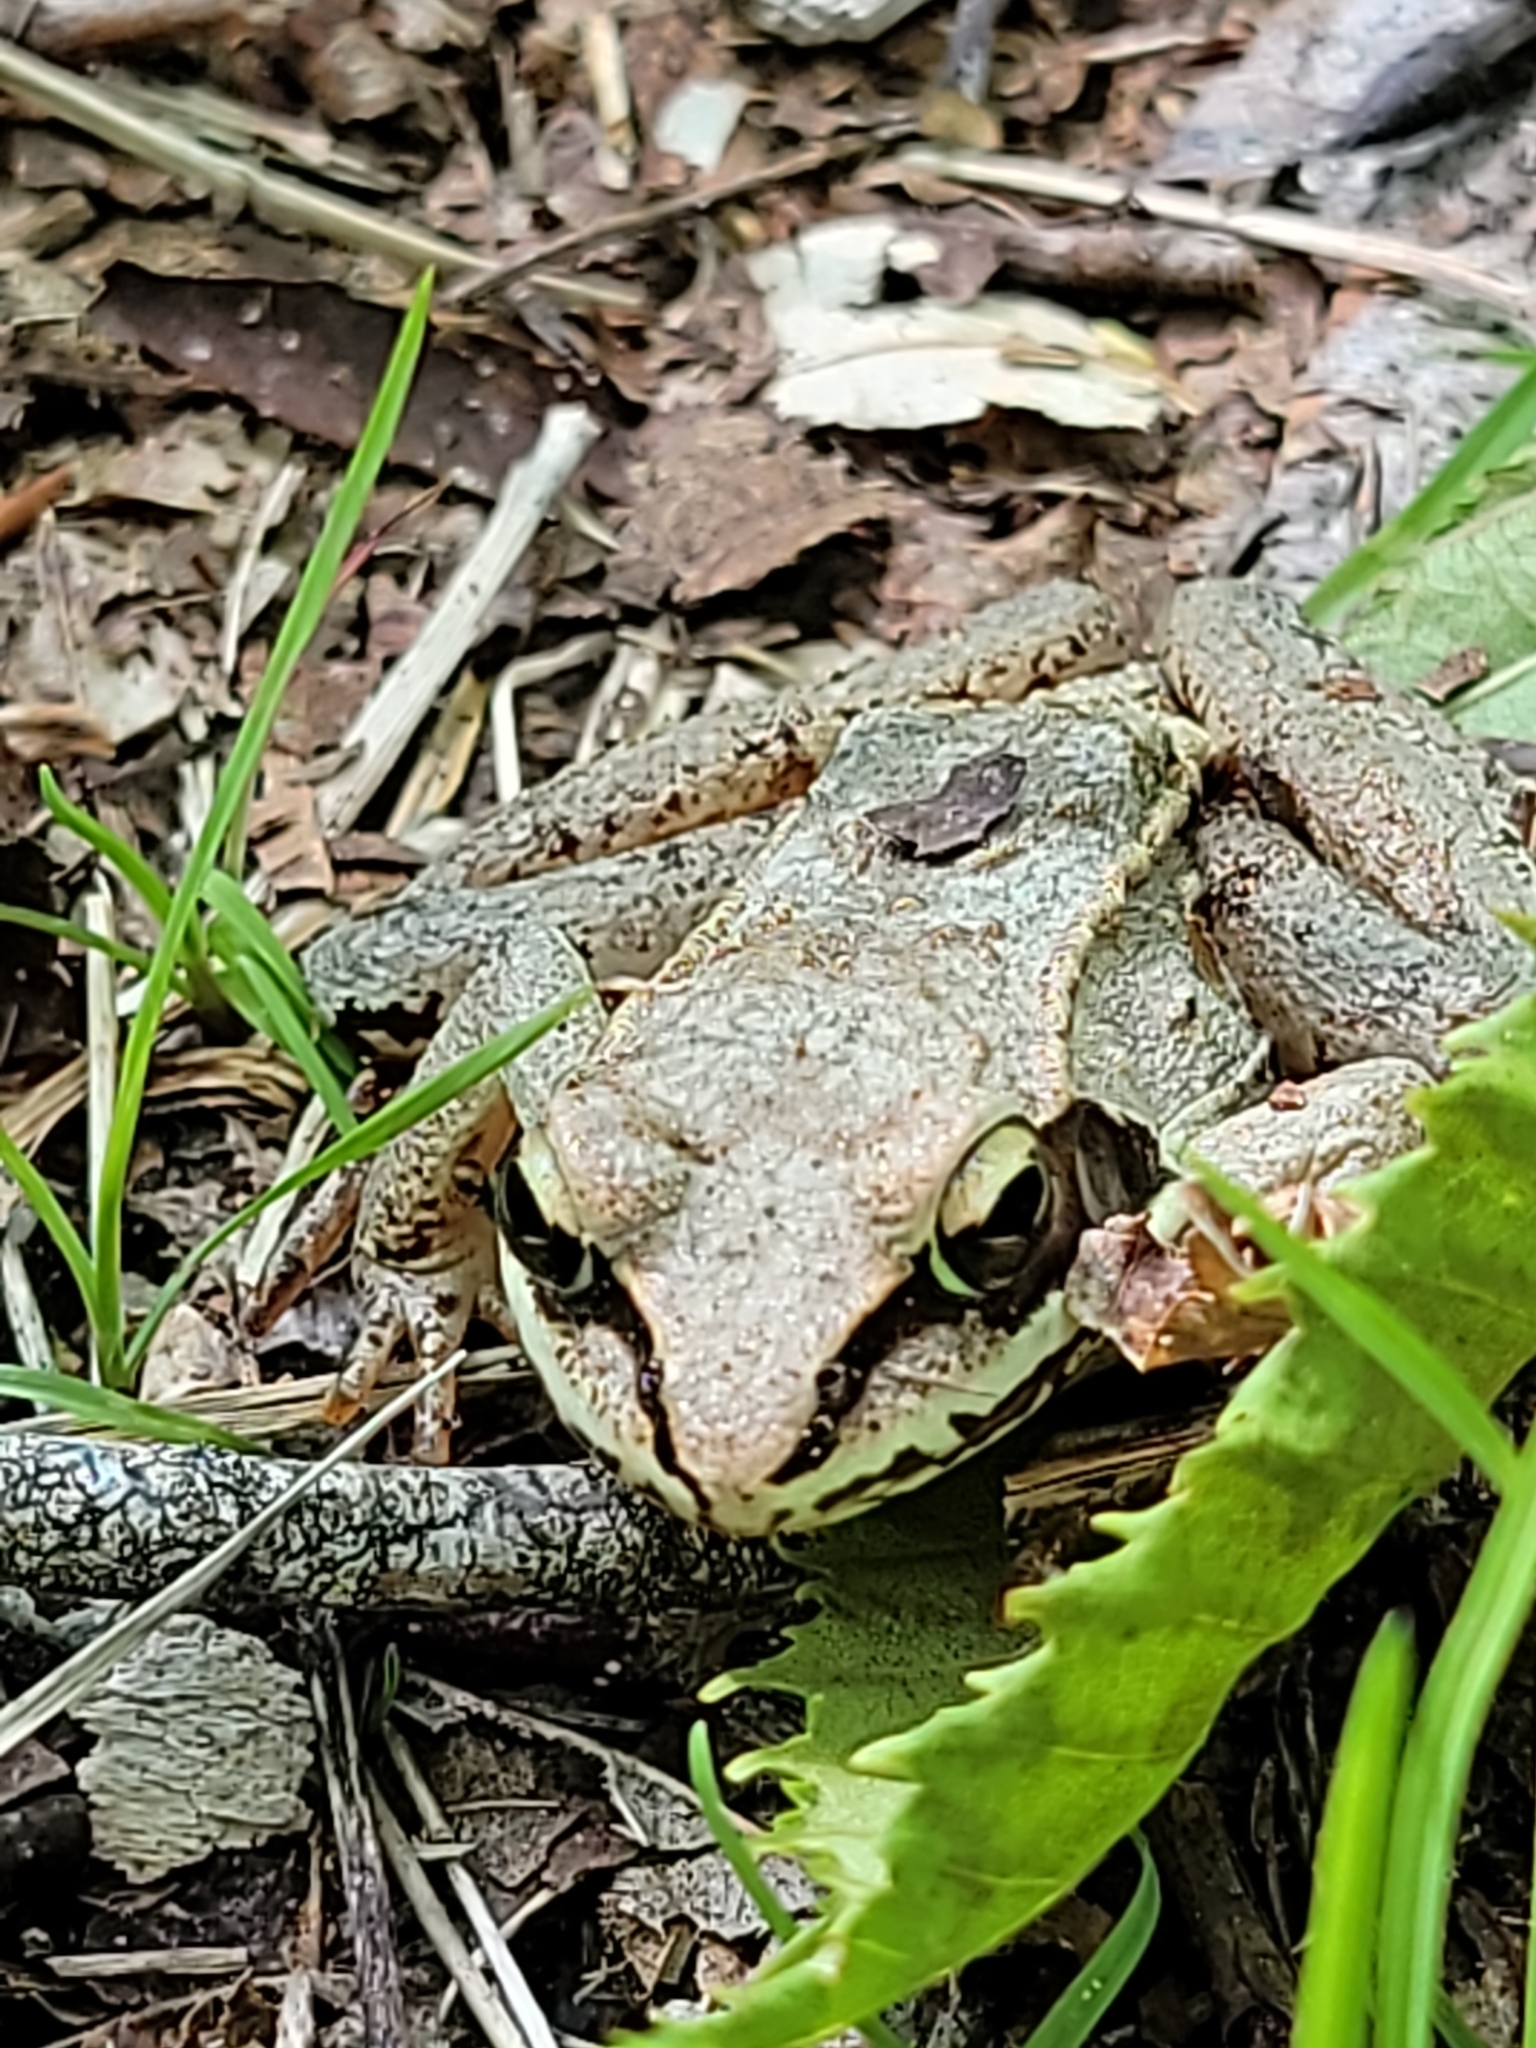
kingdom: Animalia
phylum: Chordata
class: Amphibia
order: Anura
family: Ranidae
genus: Lithobates
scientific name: Lithobates sylvaticus
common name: Wood frog
